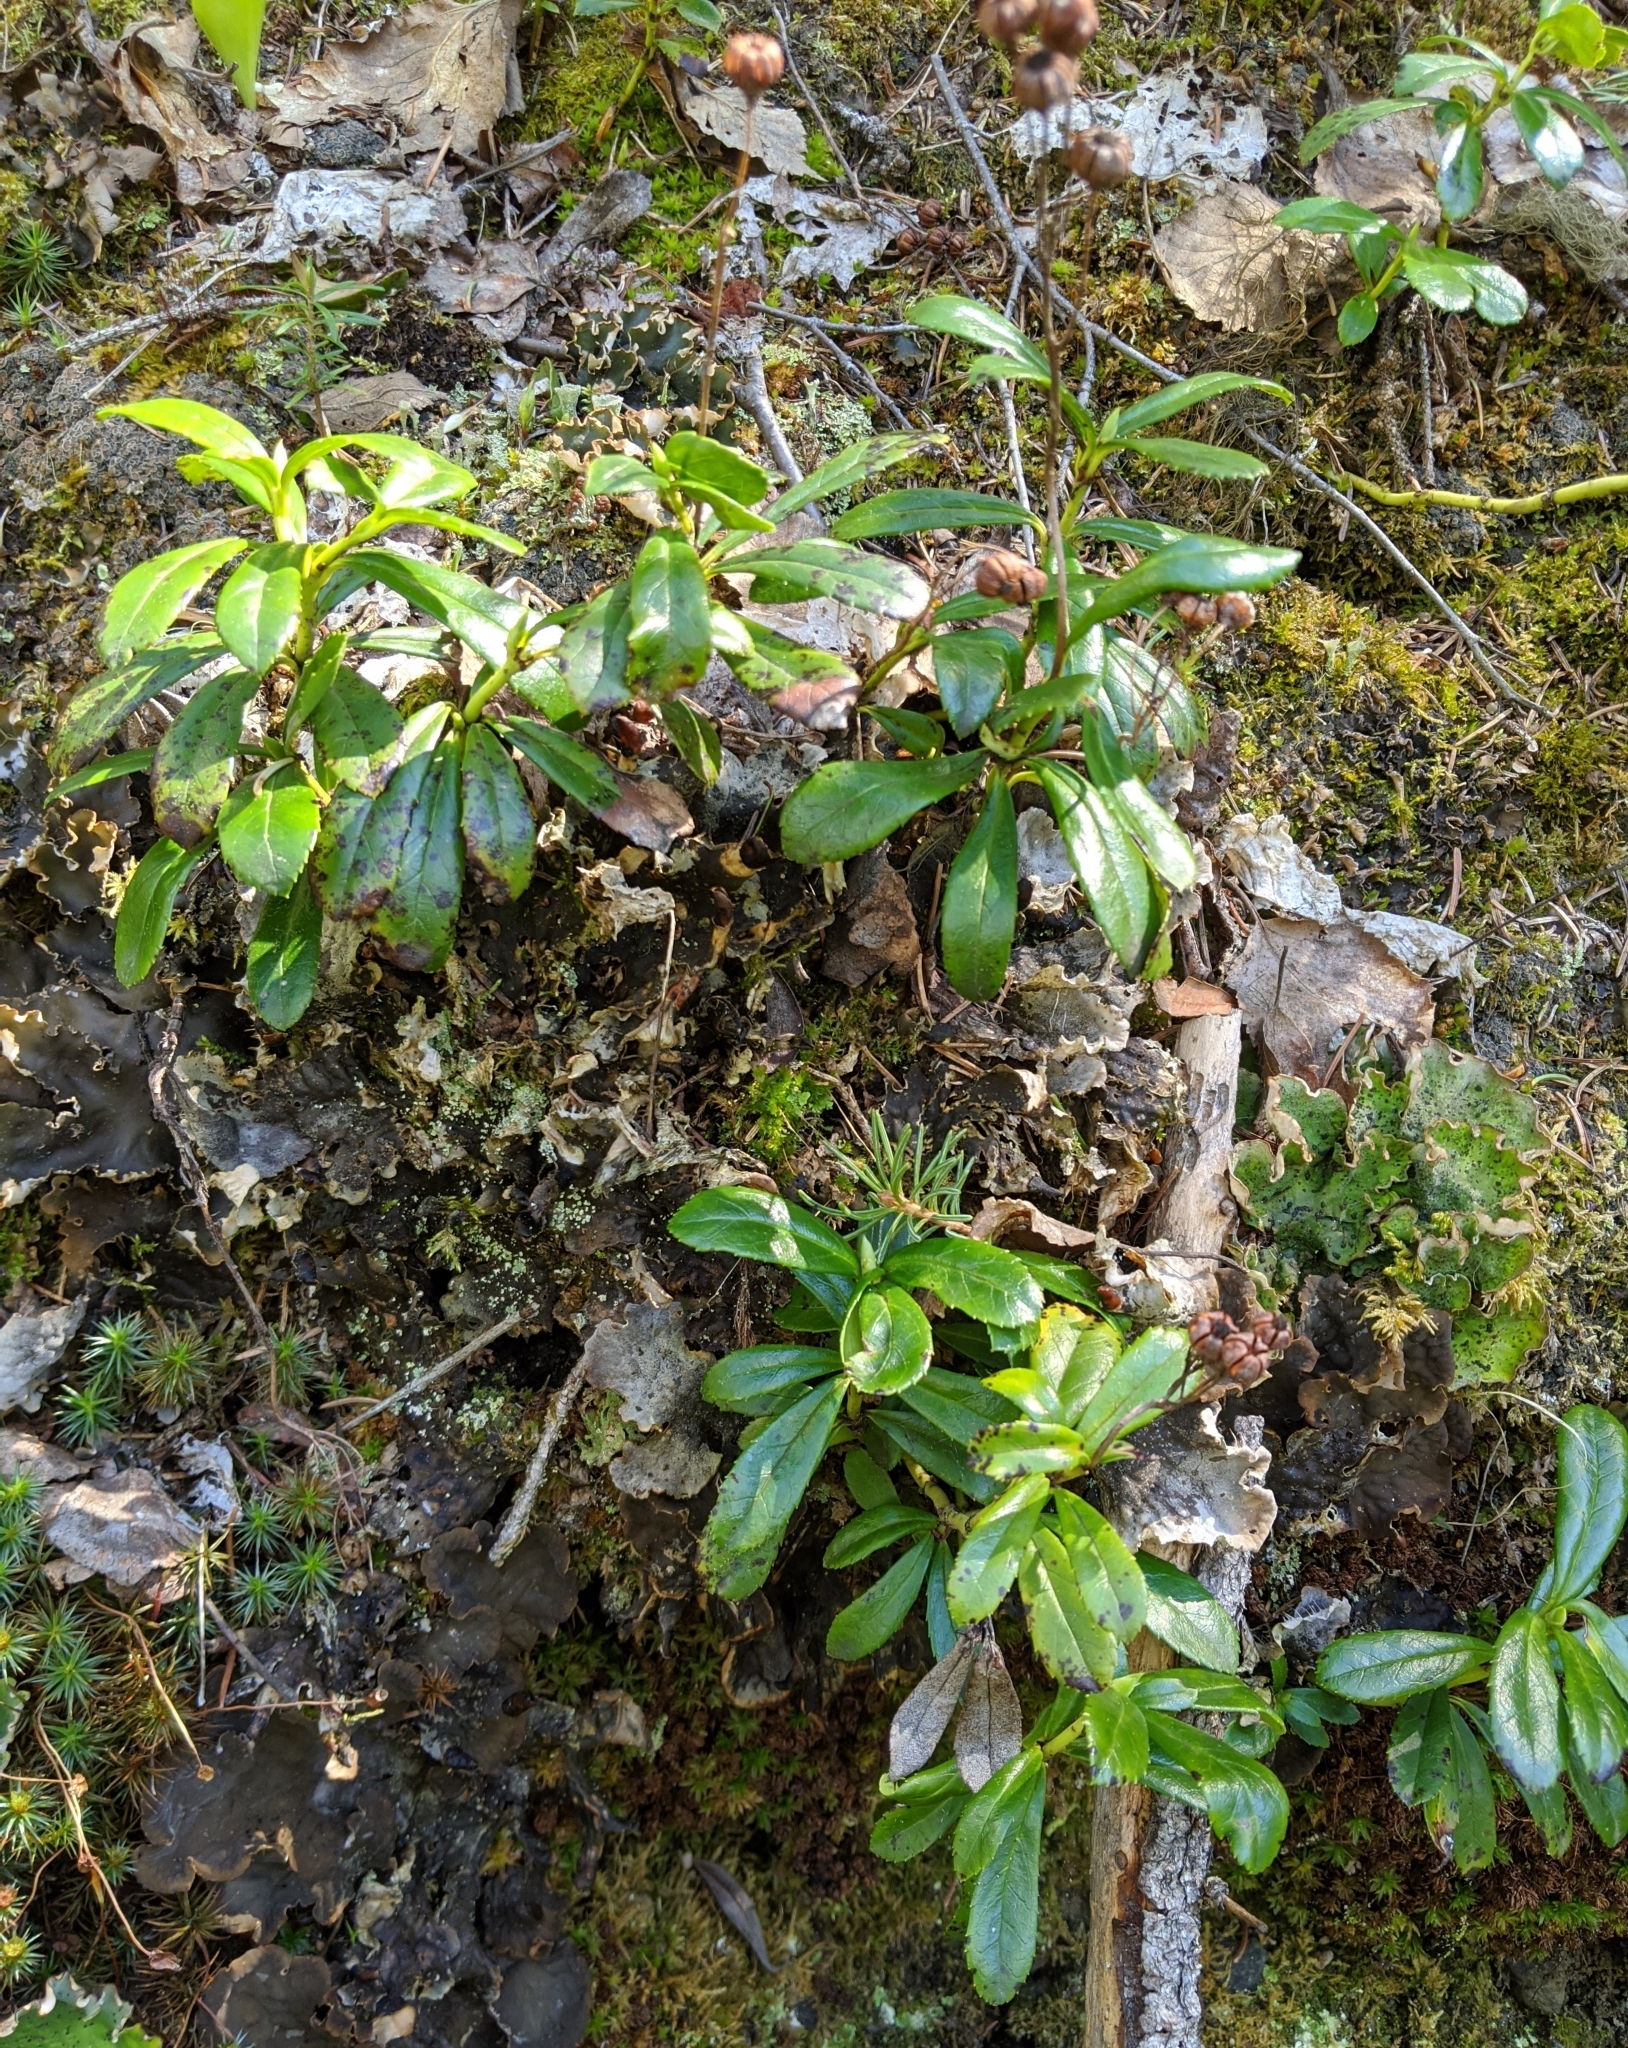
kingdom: Plantae
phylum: Tracheophyta
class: Magnoliopsida
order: Ericales
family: Ericaceae
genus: Chimaphila
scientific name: Chimaphila umbellata
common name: Pipsissewa
